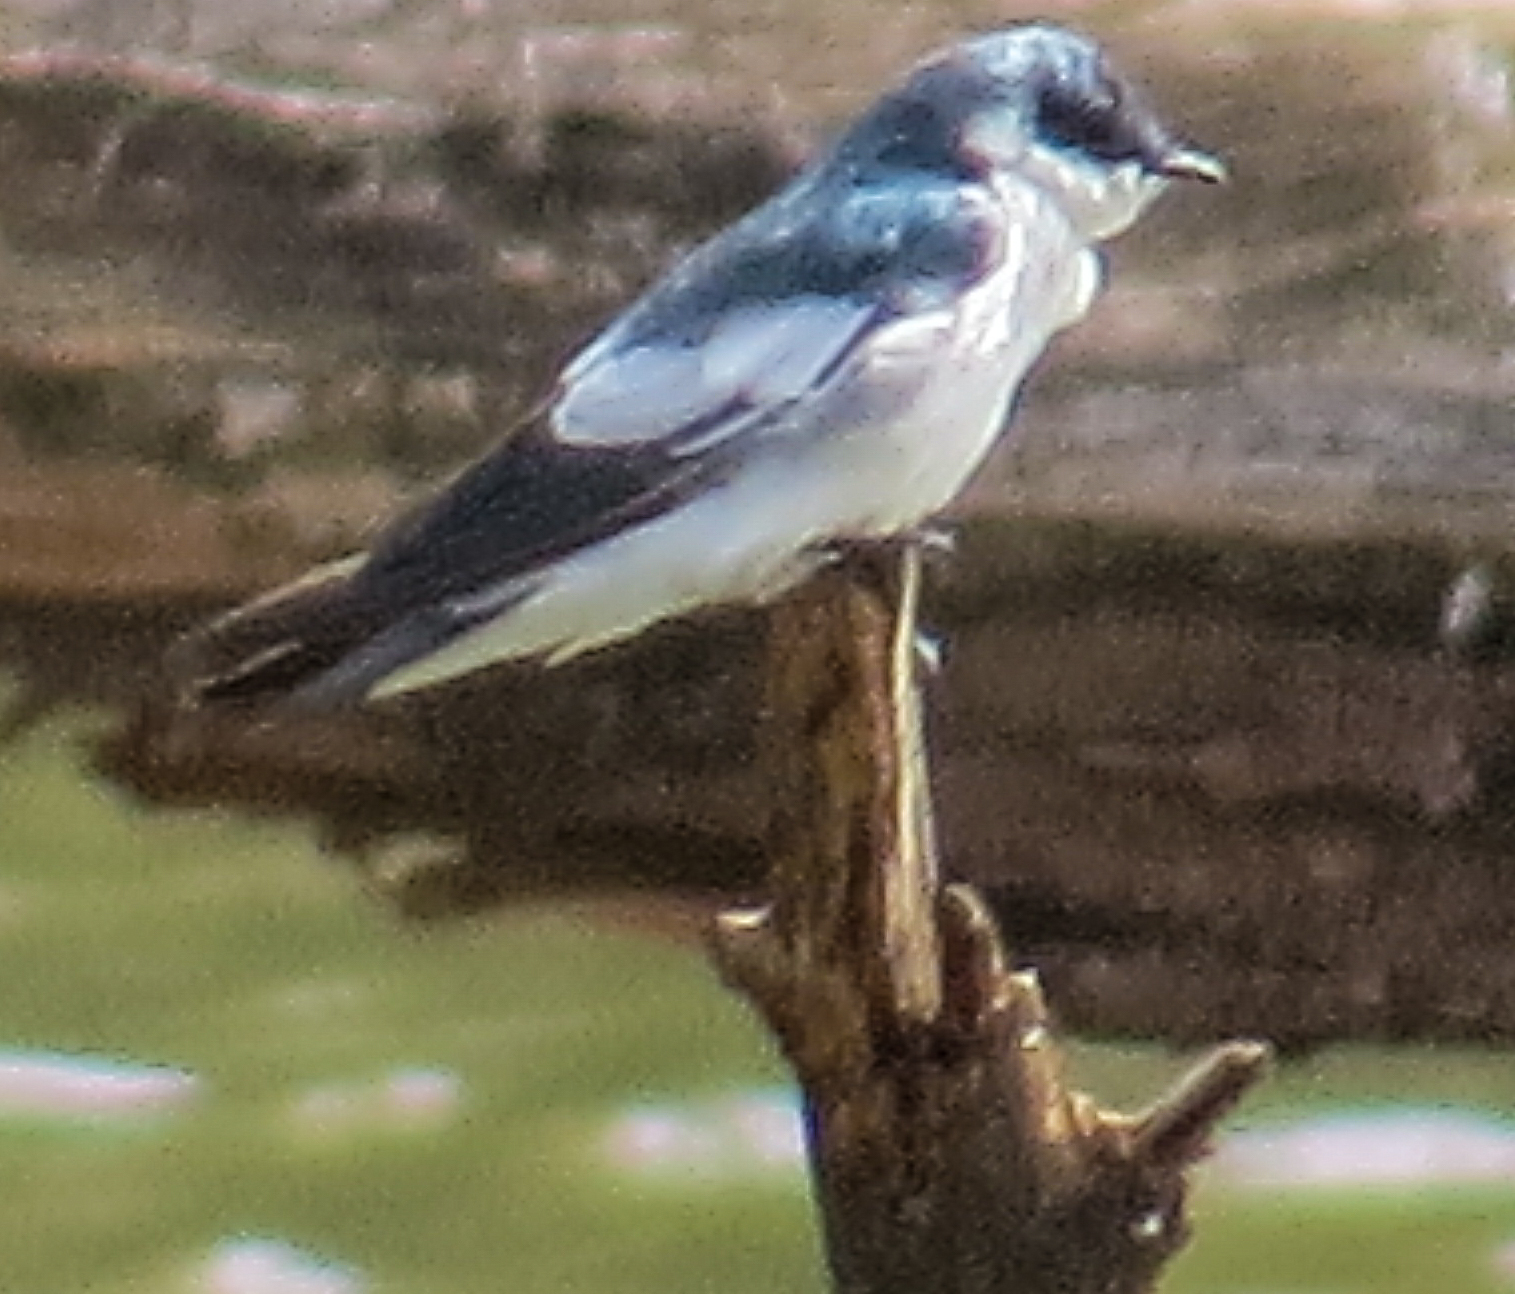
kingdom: Animalia
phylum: Chordata
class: Aves
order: Passeriformes
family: Hirundinidae
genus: Tachycineta
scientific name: Tachycineta albiventer
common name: White-winged swallow
